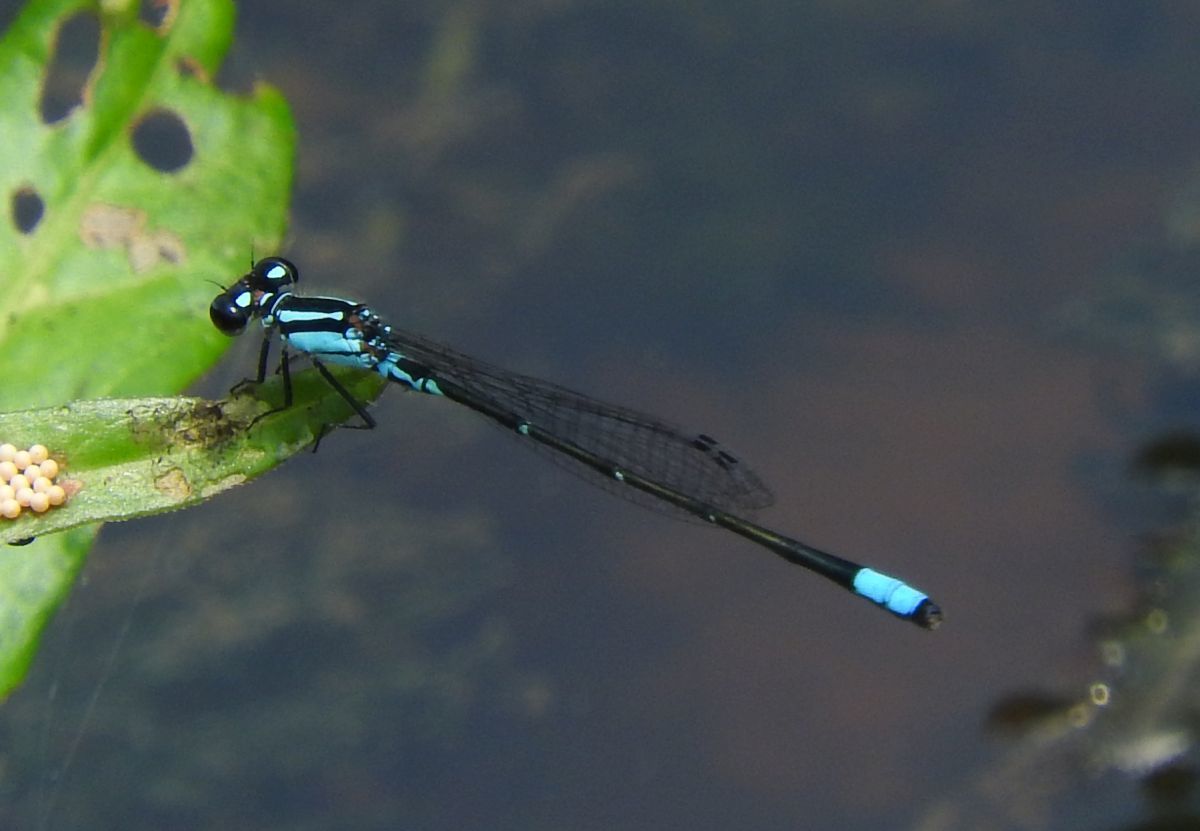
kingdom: Animalia
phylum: Arthropoda
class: Insecta
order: Odonata
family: Coenagrionidae
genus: Enallagma
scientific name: Enallagma geminatum
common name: Skimming bluet
